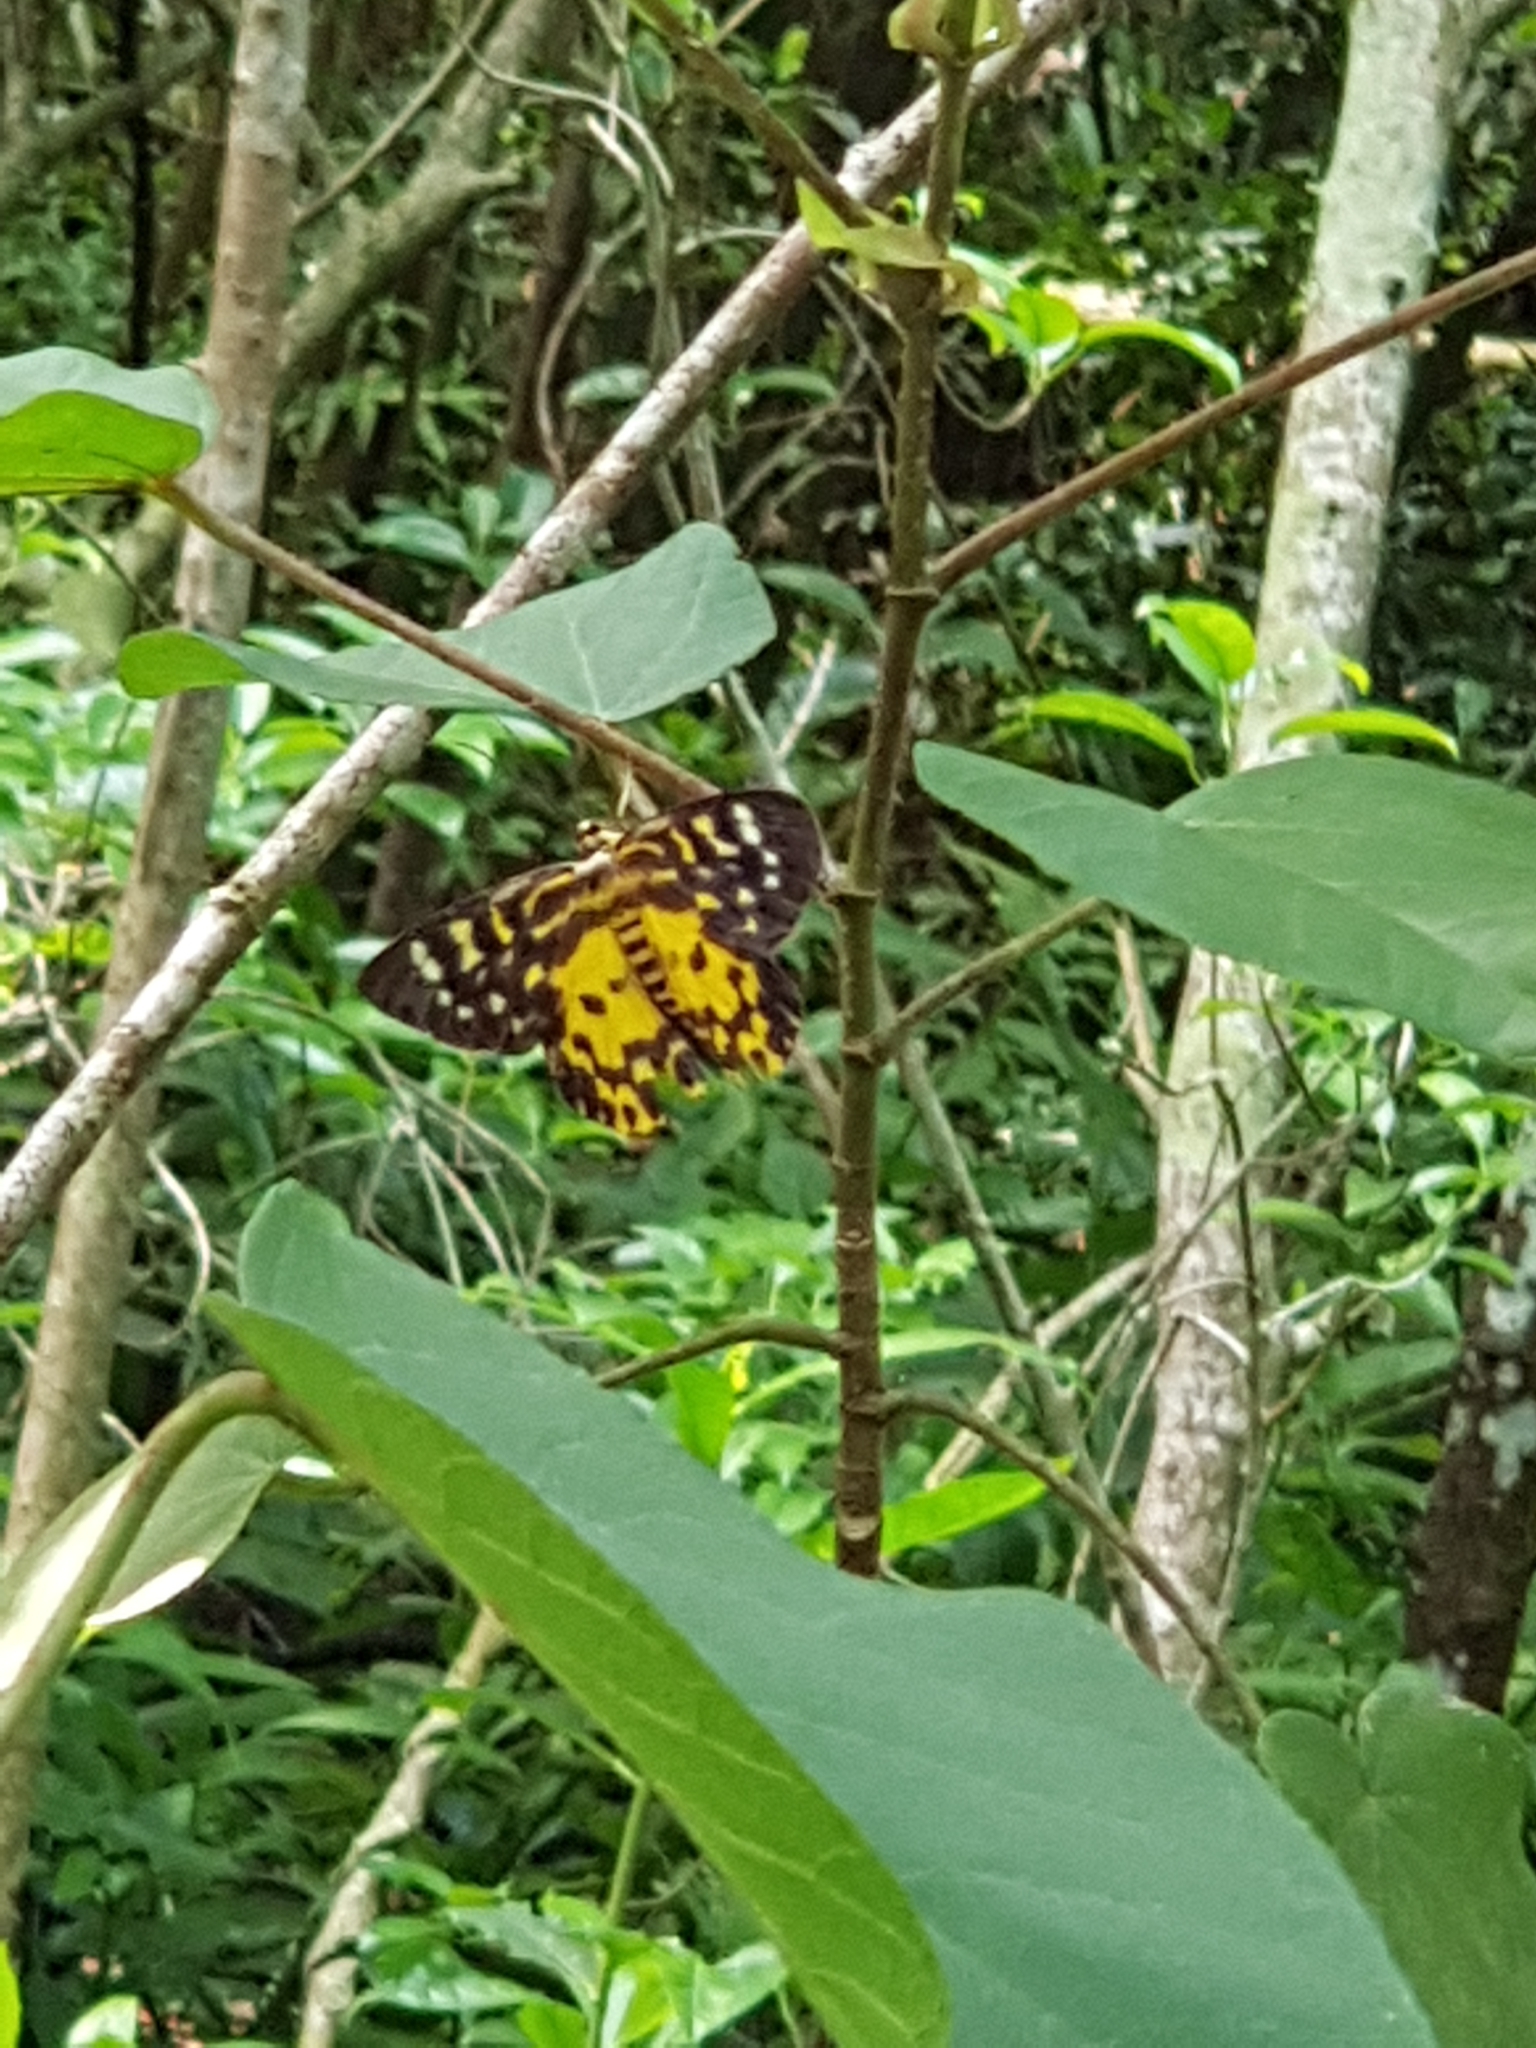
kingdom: Animalia
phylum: Arthropoda
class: Insecta
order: Lepidoptera
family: Geometridae
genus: Dysphania
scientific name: Dysphania bivexillata
